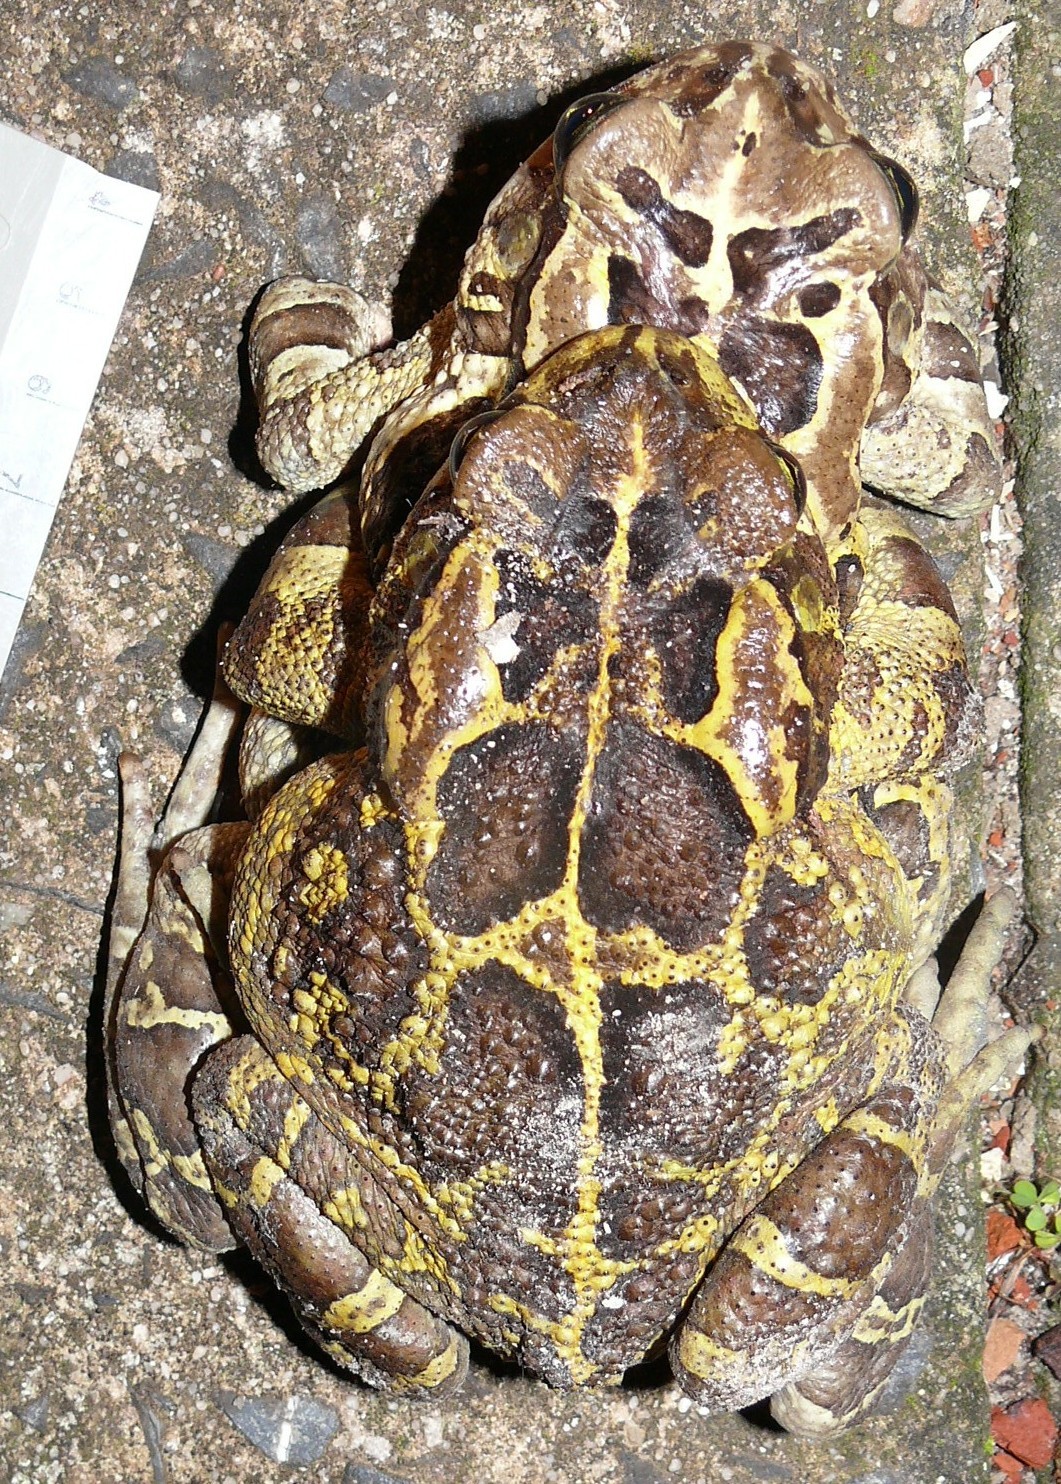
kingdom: Animalia
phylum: Chordata
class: Amphibia
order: Anura
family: Bufonidae
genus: Sclerophrys
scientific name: Sclerophrys pantherina
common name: Panther toad
